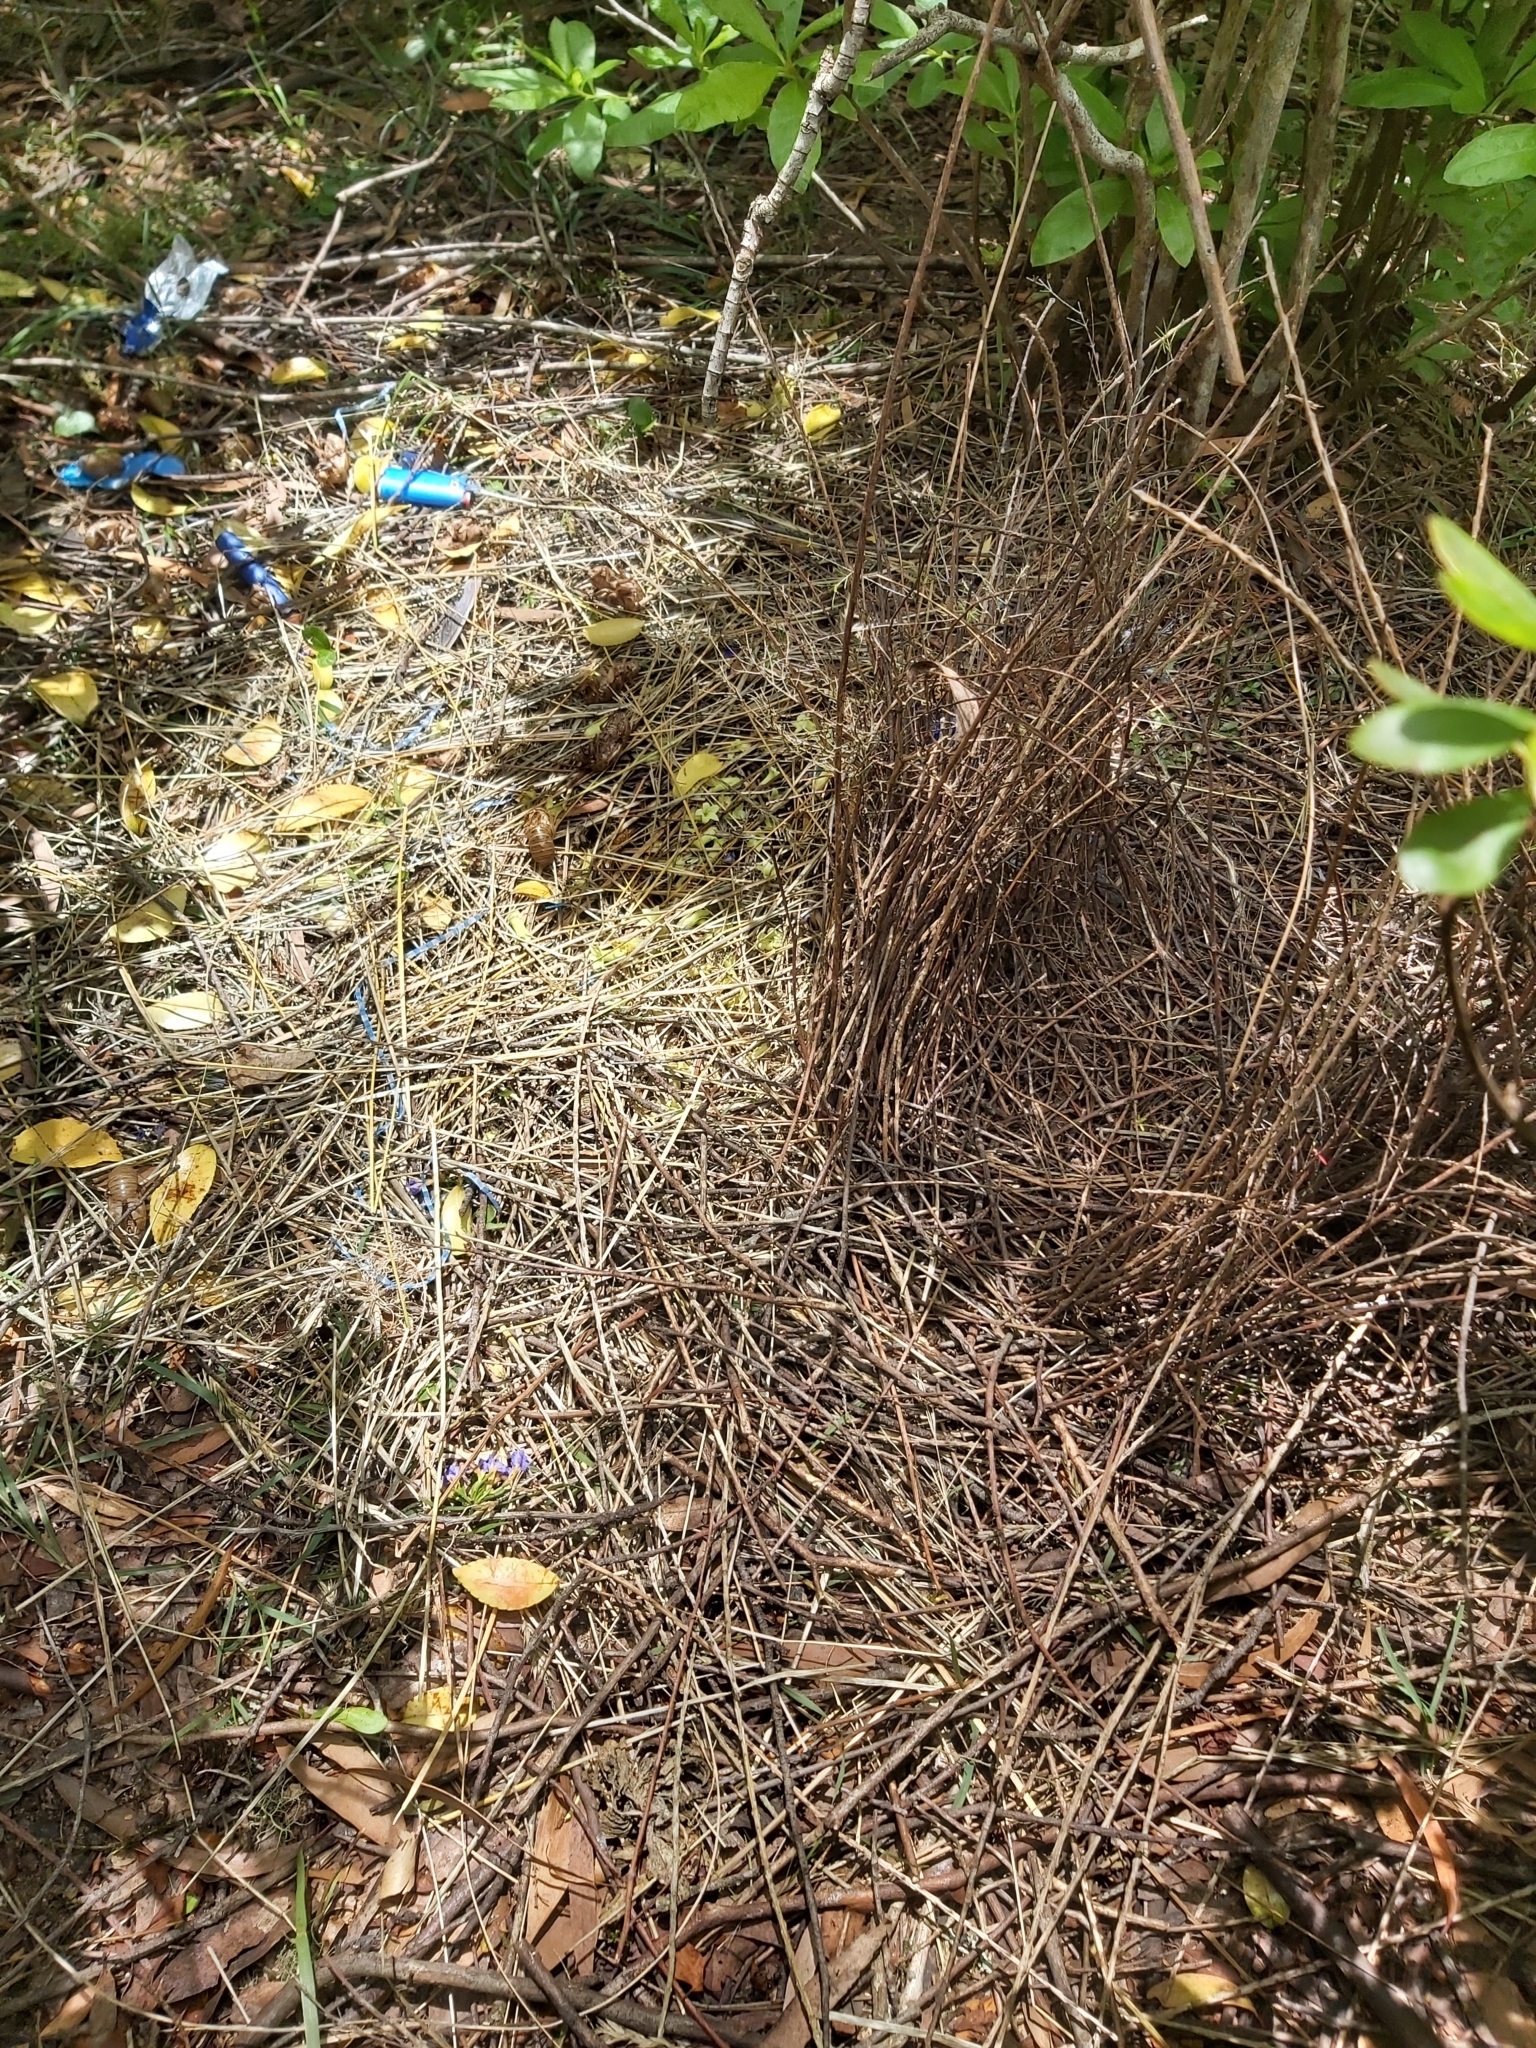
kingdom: Animalia
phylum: Chordata
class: Aves
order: Passeriformes
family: Ptilonorhynchidae
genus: Ptilonorhynchus
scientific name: Ptilonorhynchus violaceus
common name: Satin bowerbird
